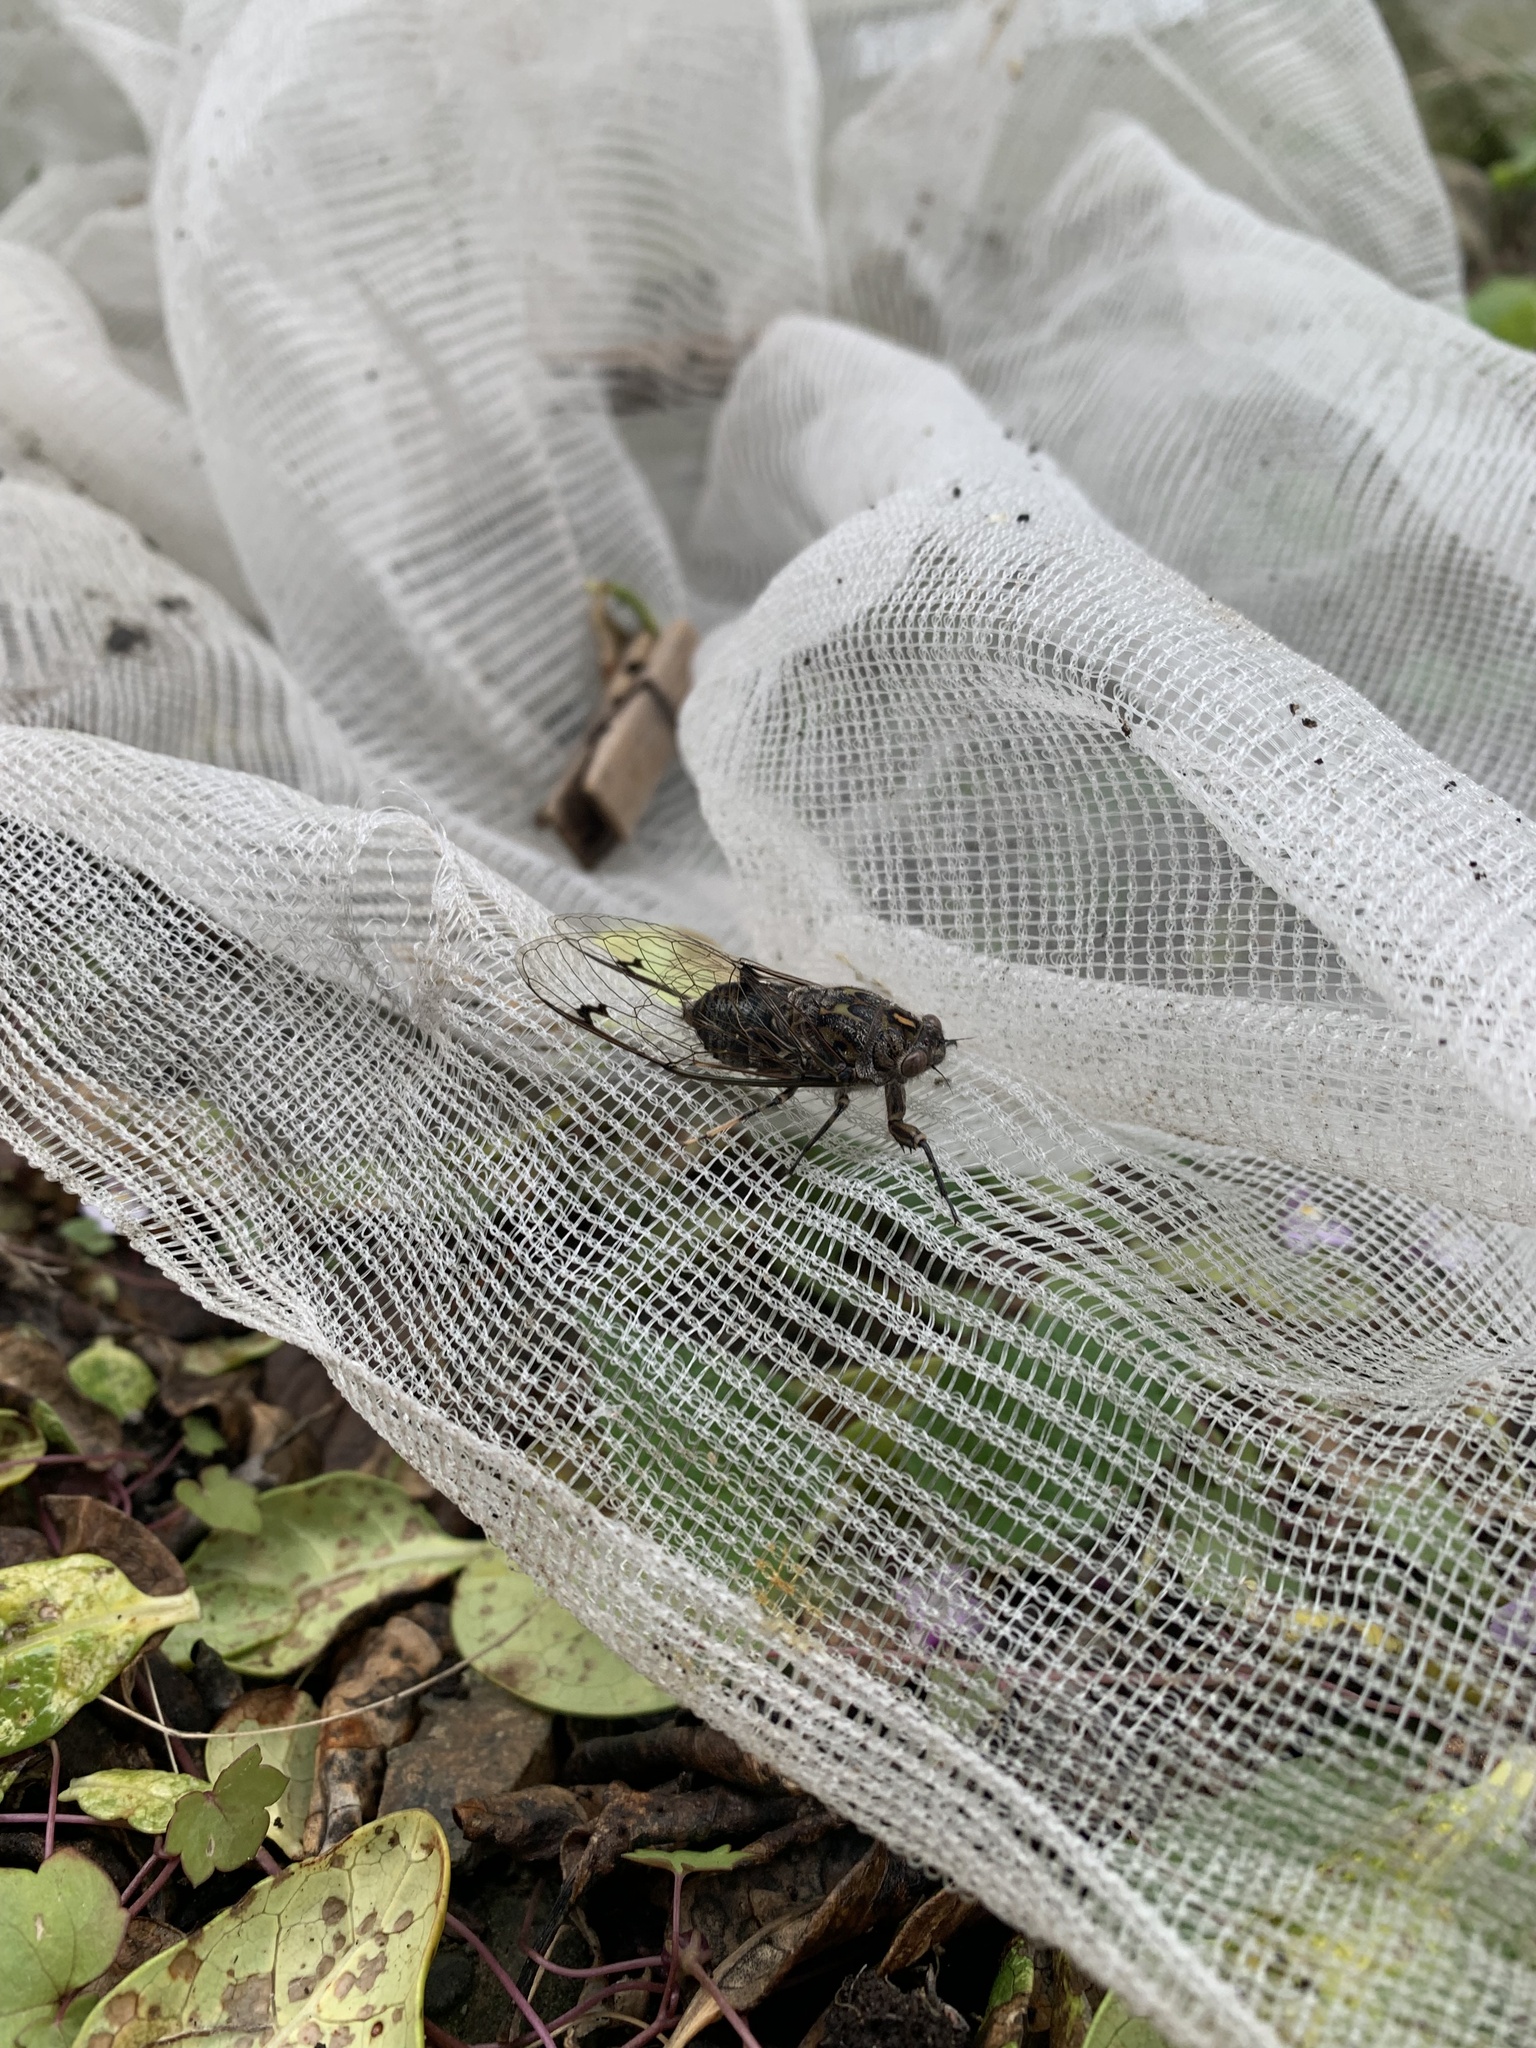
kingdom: Animalia
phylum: Arthropoda
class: Insecta
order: Hemiptera
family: Cicadidae
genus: Amphipsalta
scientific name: Amphipsalta cingulata
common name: Clapping cicada
